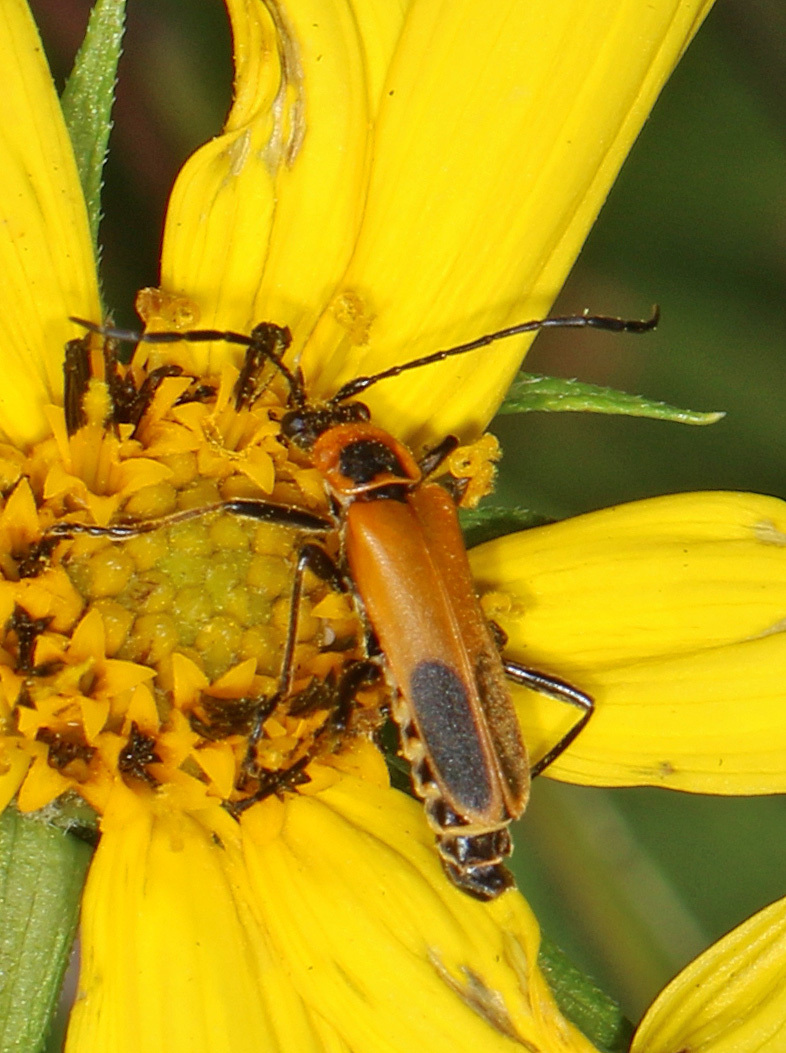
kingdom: Animalia
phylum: Arthropoda
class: Insecta
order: Coleoptera
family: Cantharidae
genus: Chauliognathus
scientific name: Chauliognathus pensylvanicus
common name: Goldenrod soldier beetle
